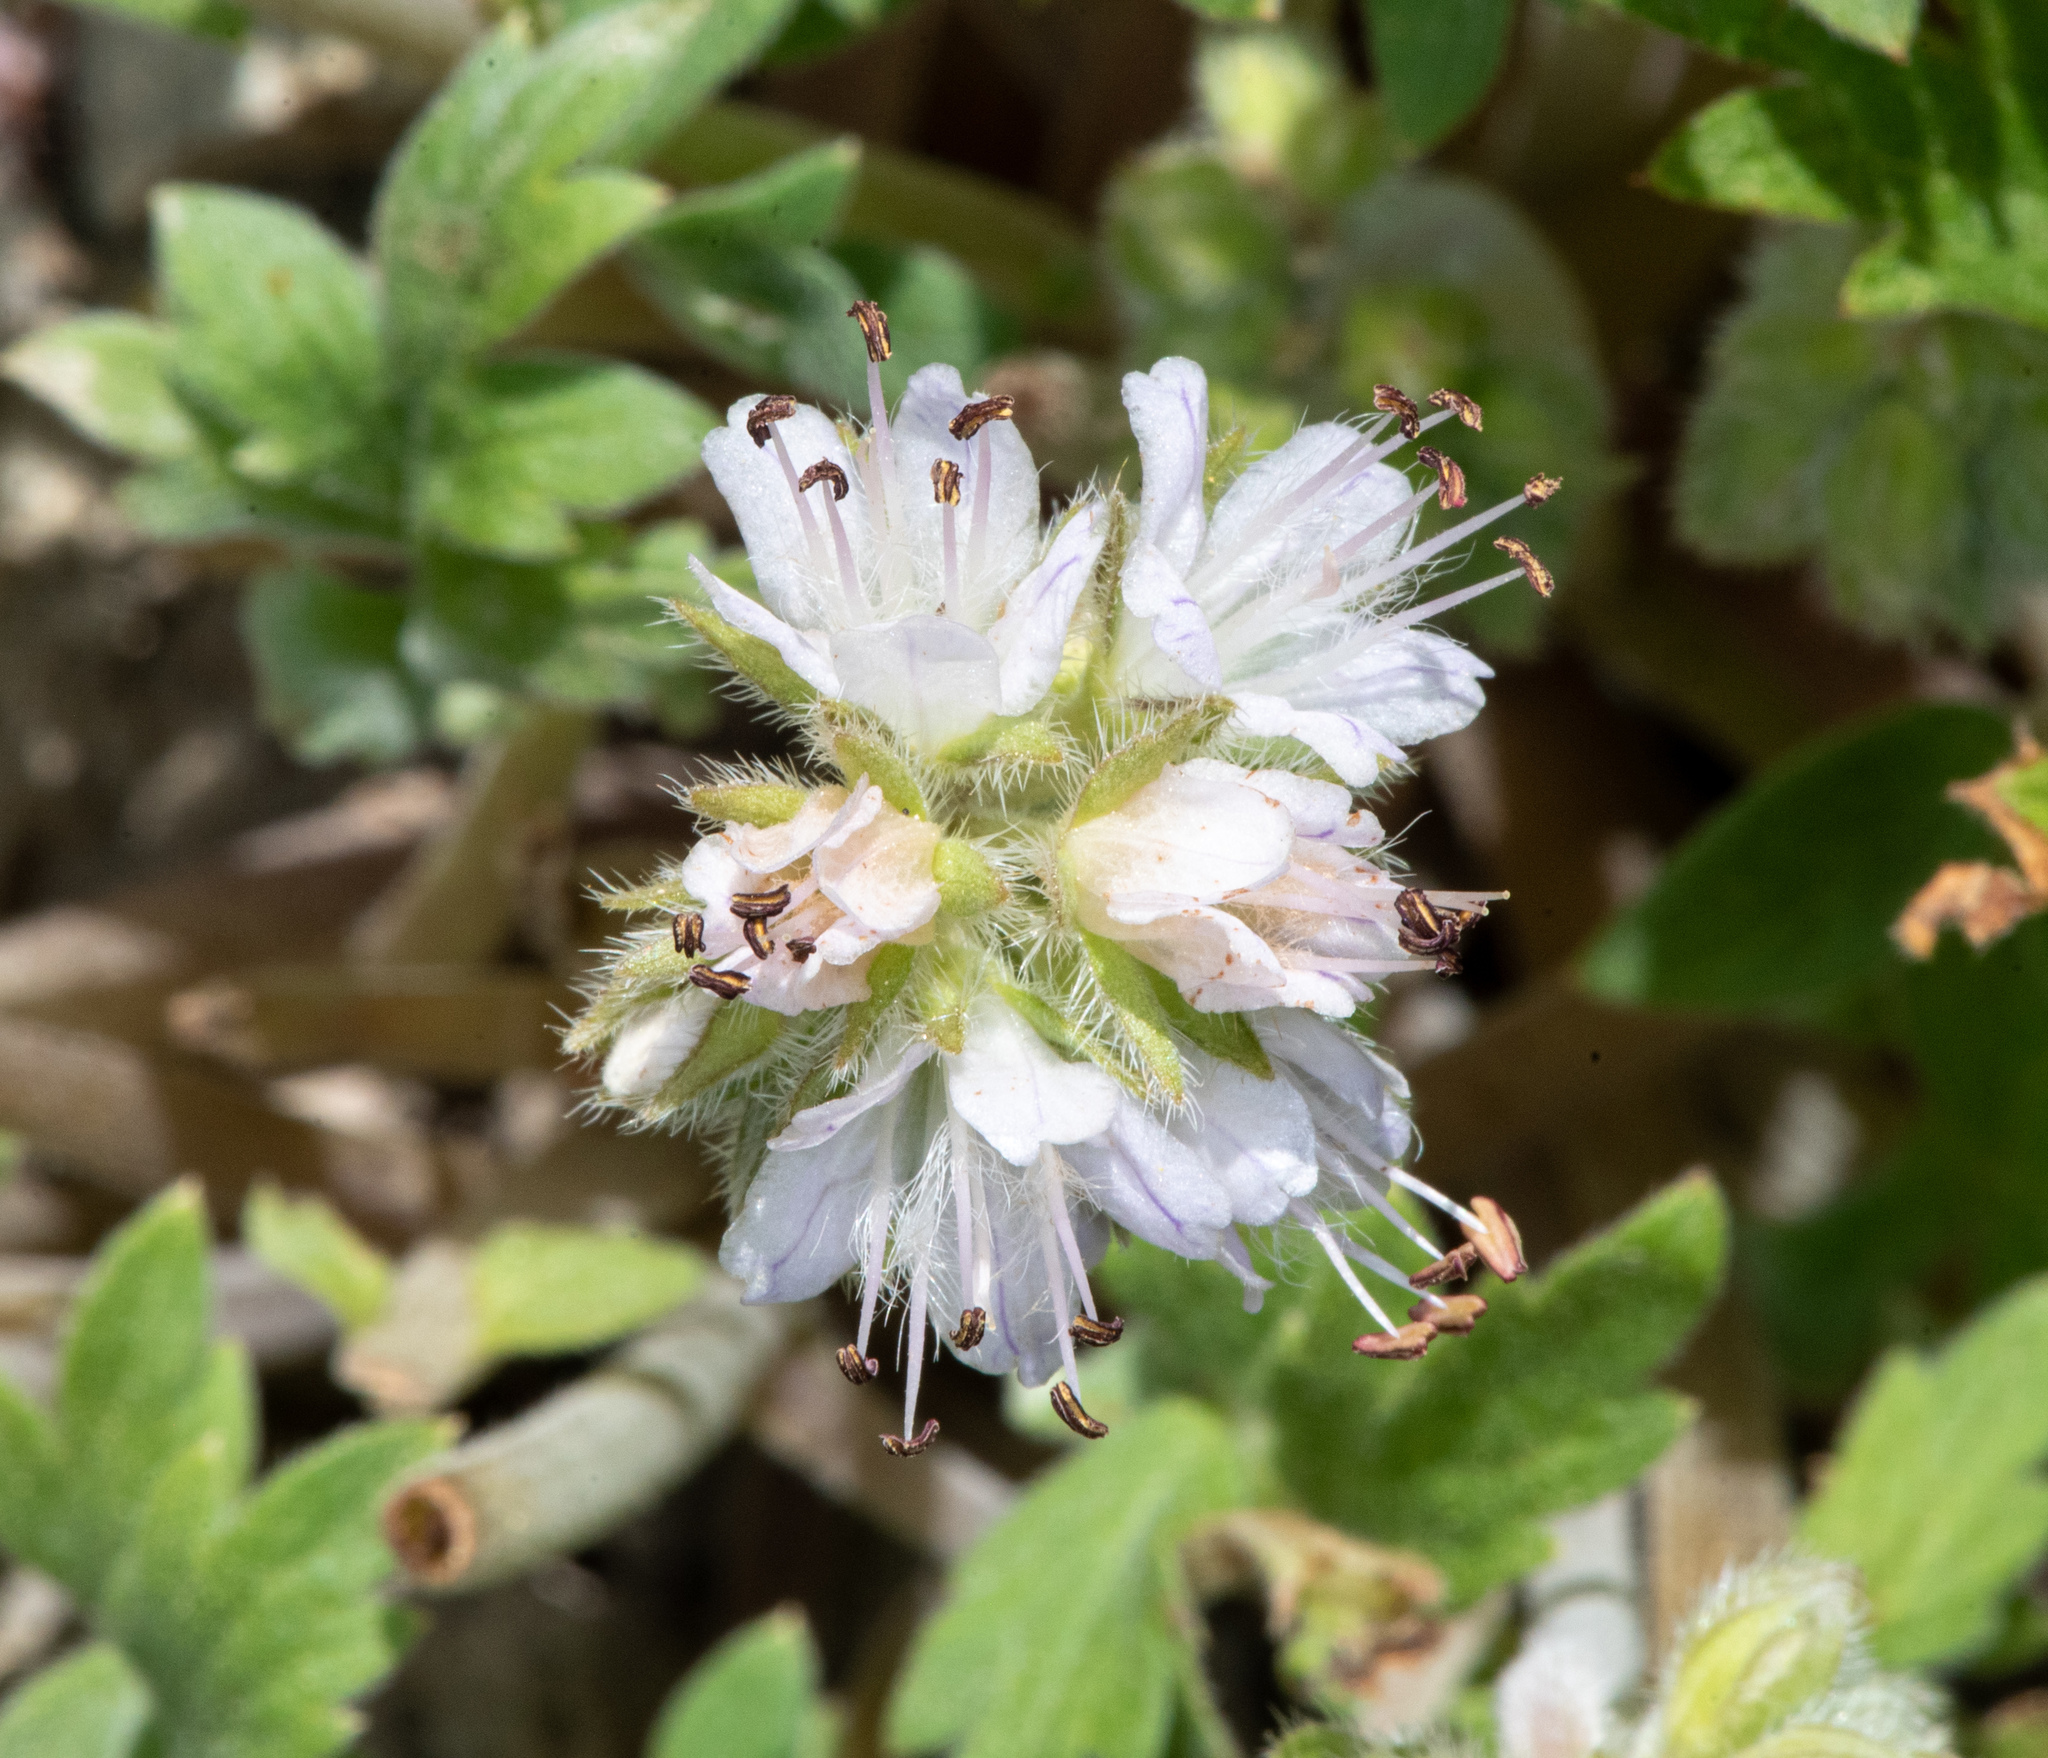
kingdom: Plantae
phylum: Tracheophyta
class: Magnoliopsida
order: Boraginales
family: Hydrophyllaceae
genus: Hydrophyllum
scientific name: Hydrophyllum occidentale
